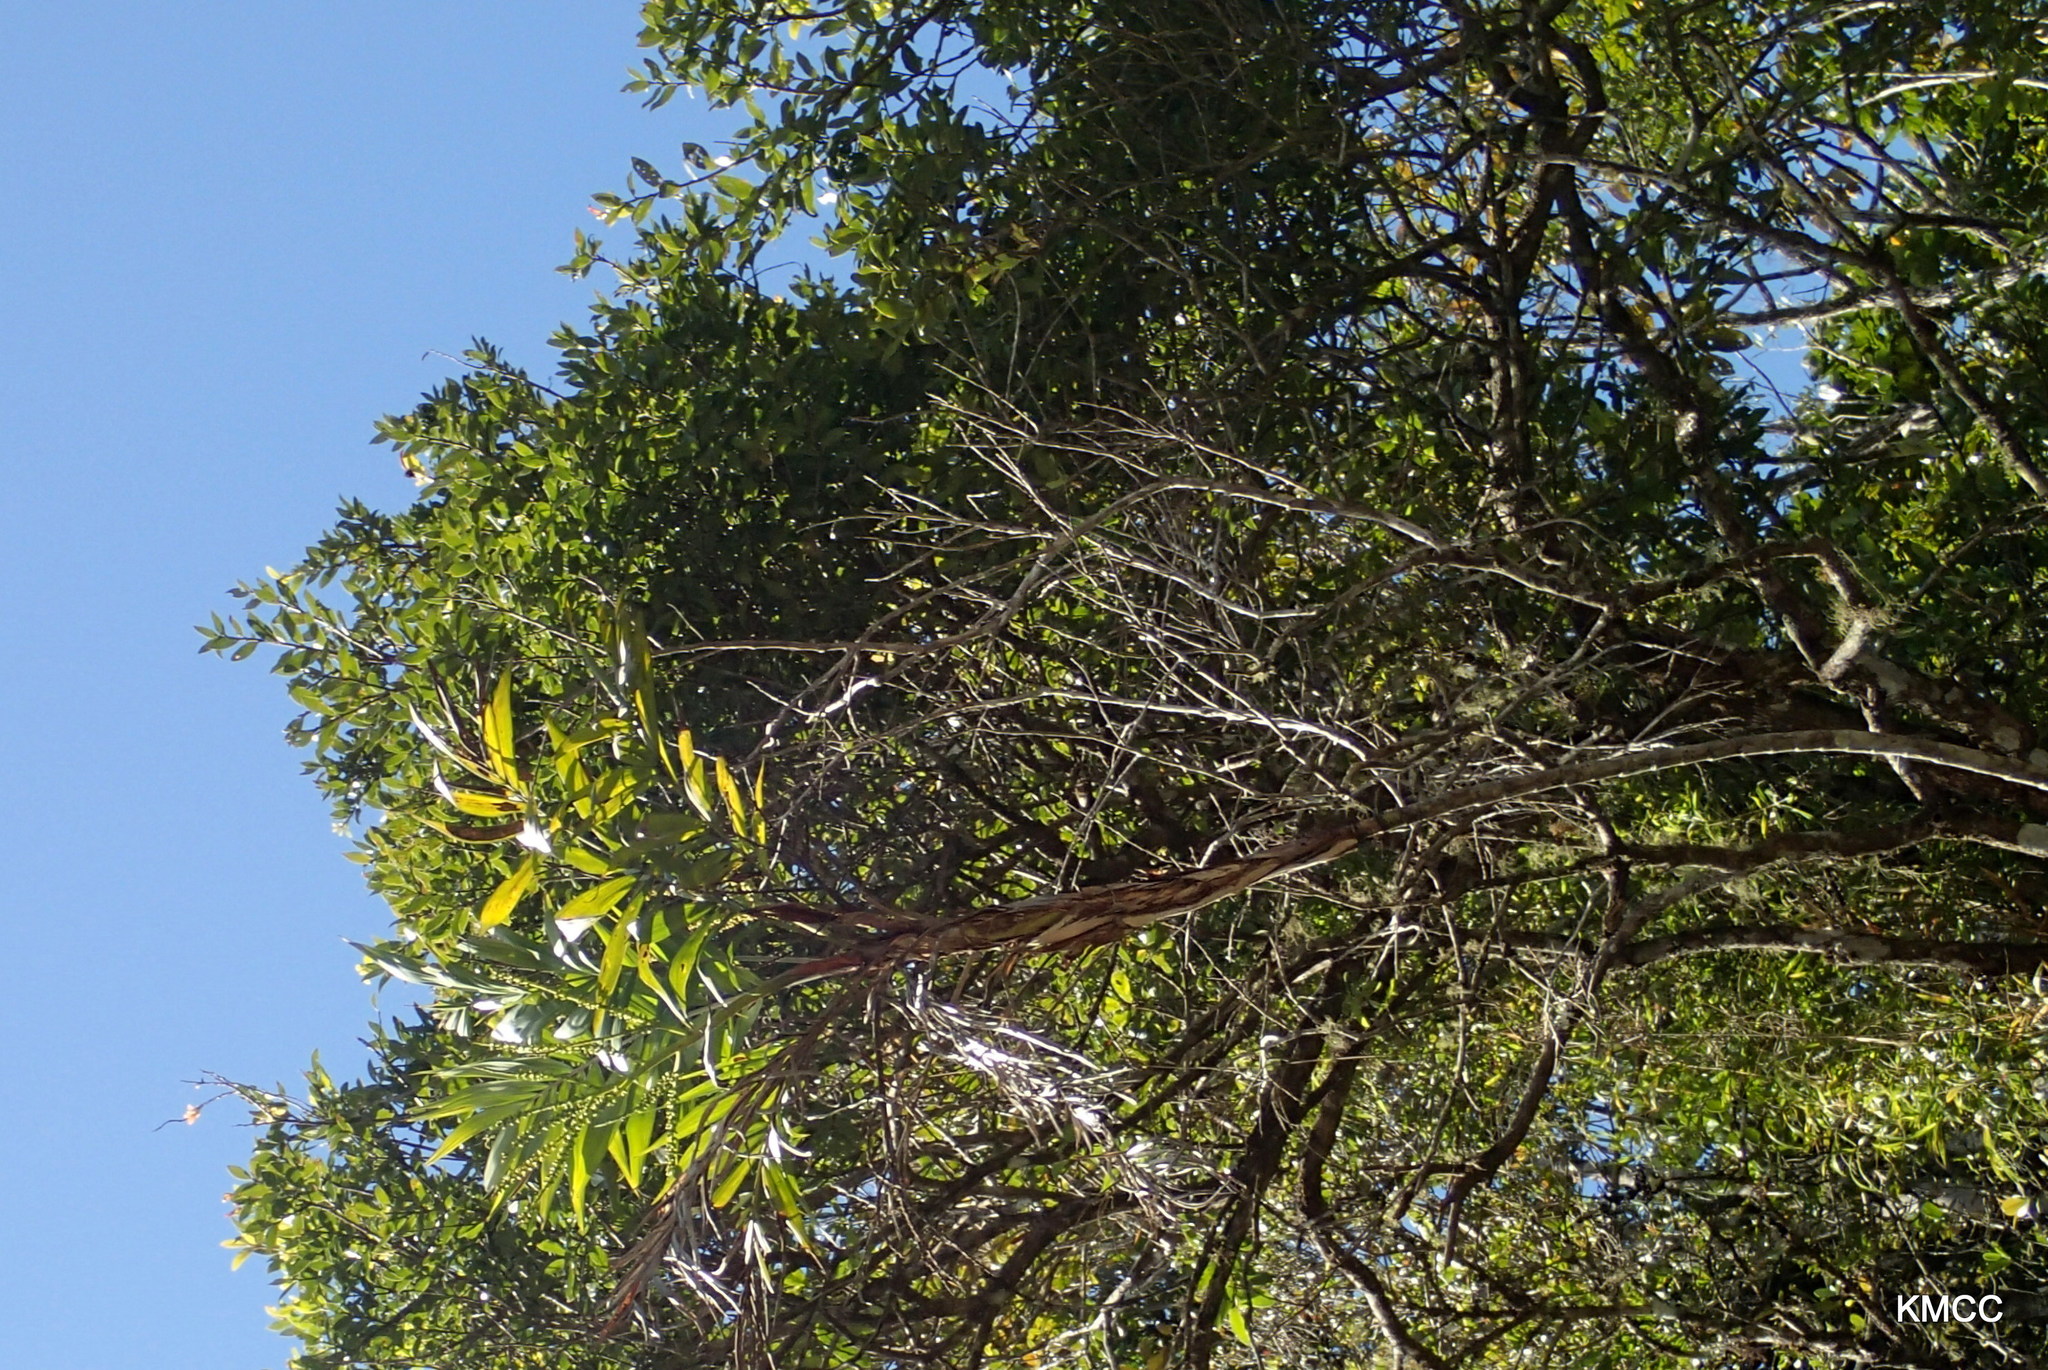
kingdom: Plantae
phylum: Tracheophyta
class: Liliopsida
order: Arecales
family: Arecaceae
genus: Dypsis
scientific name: Dypsis scandens
